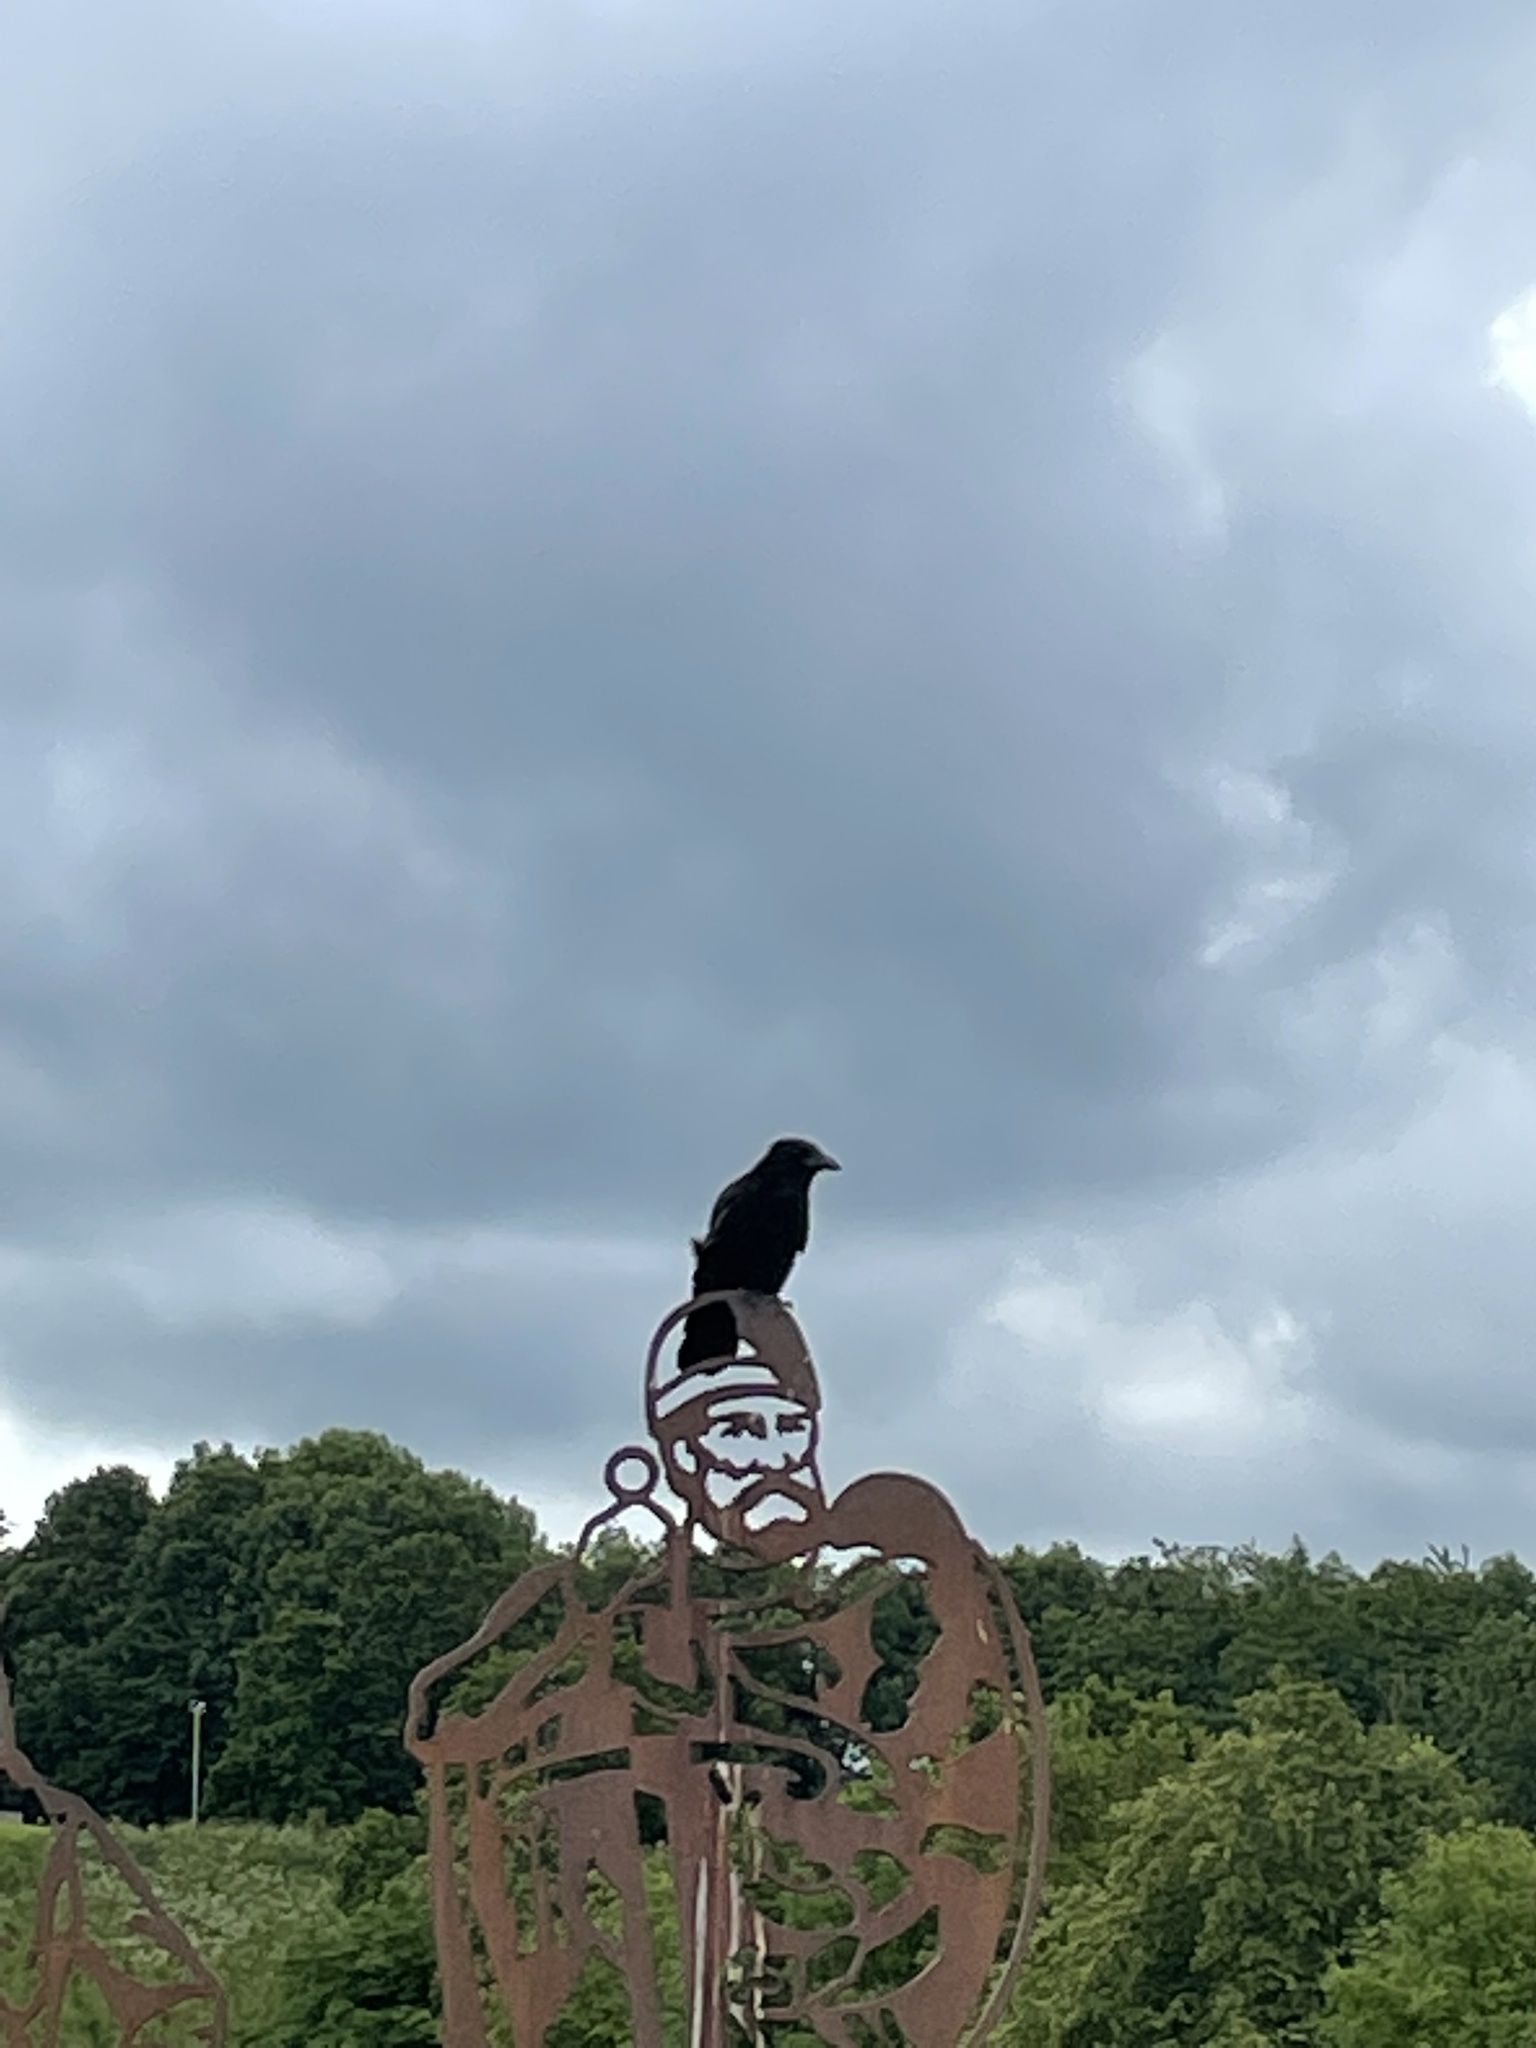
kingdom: Animalia
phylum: Chordata
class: Aves
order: Passeriformes
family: Corvidae
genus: Corvus
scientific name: Corvus corone
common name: Carrion crow
